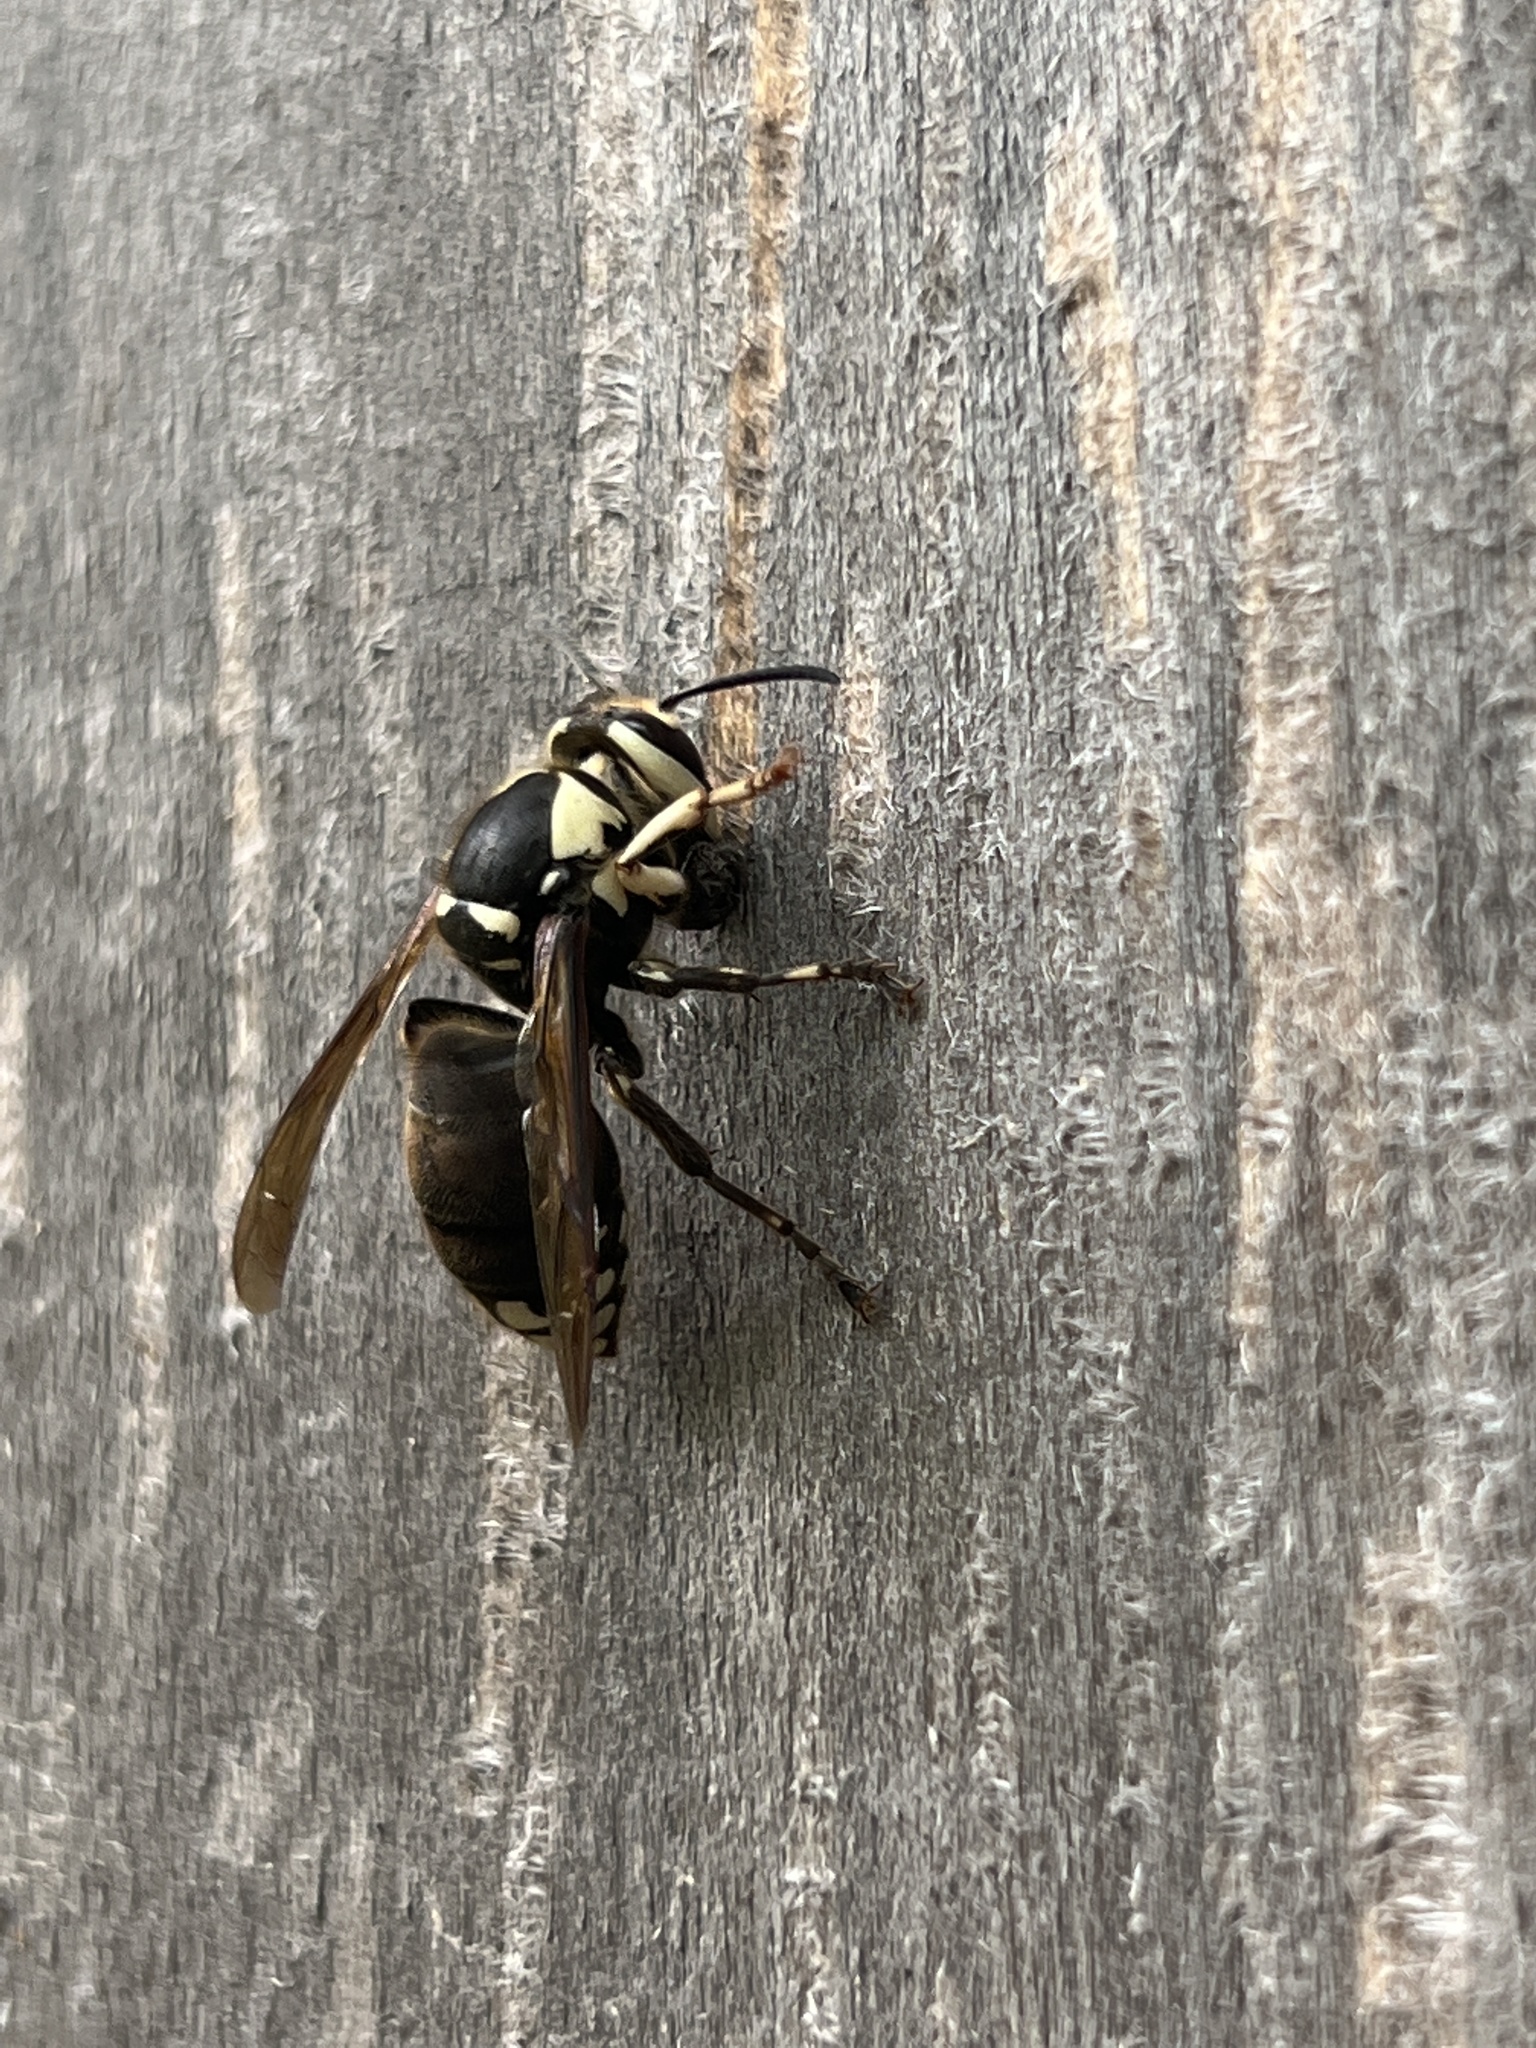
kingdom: Animalia
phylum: Arthropoda
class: Insecta
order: Hymenoptera
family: Vespidae
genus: Dolichovespula
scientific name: Dolichovespula maculata
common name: Bald-faced hornet
